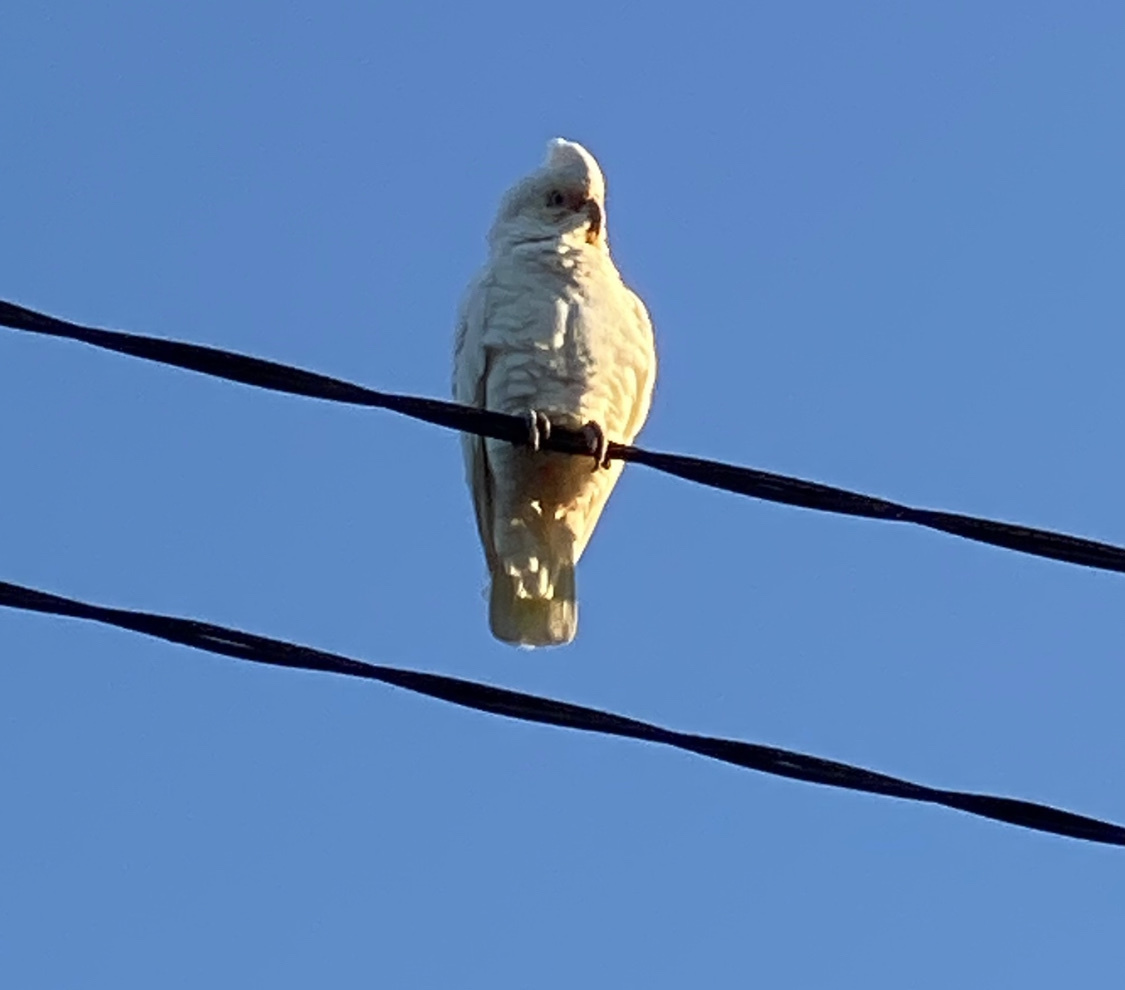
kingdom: Animalia
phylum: Chordata
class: Aves
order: Psittaciformes
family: Psittacidae
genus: Cacatua
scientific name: Cacatua sanguinea
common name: Little corella
